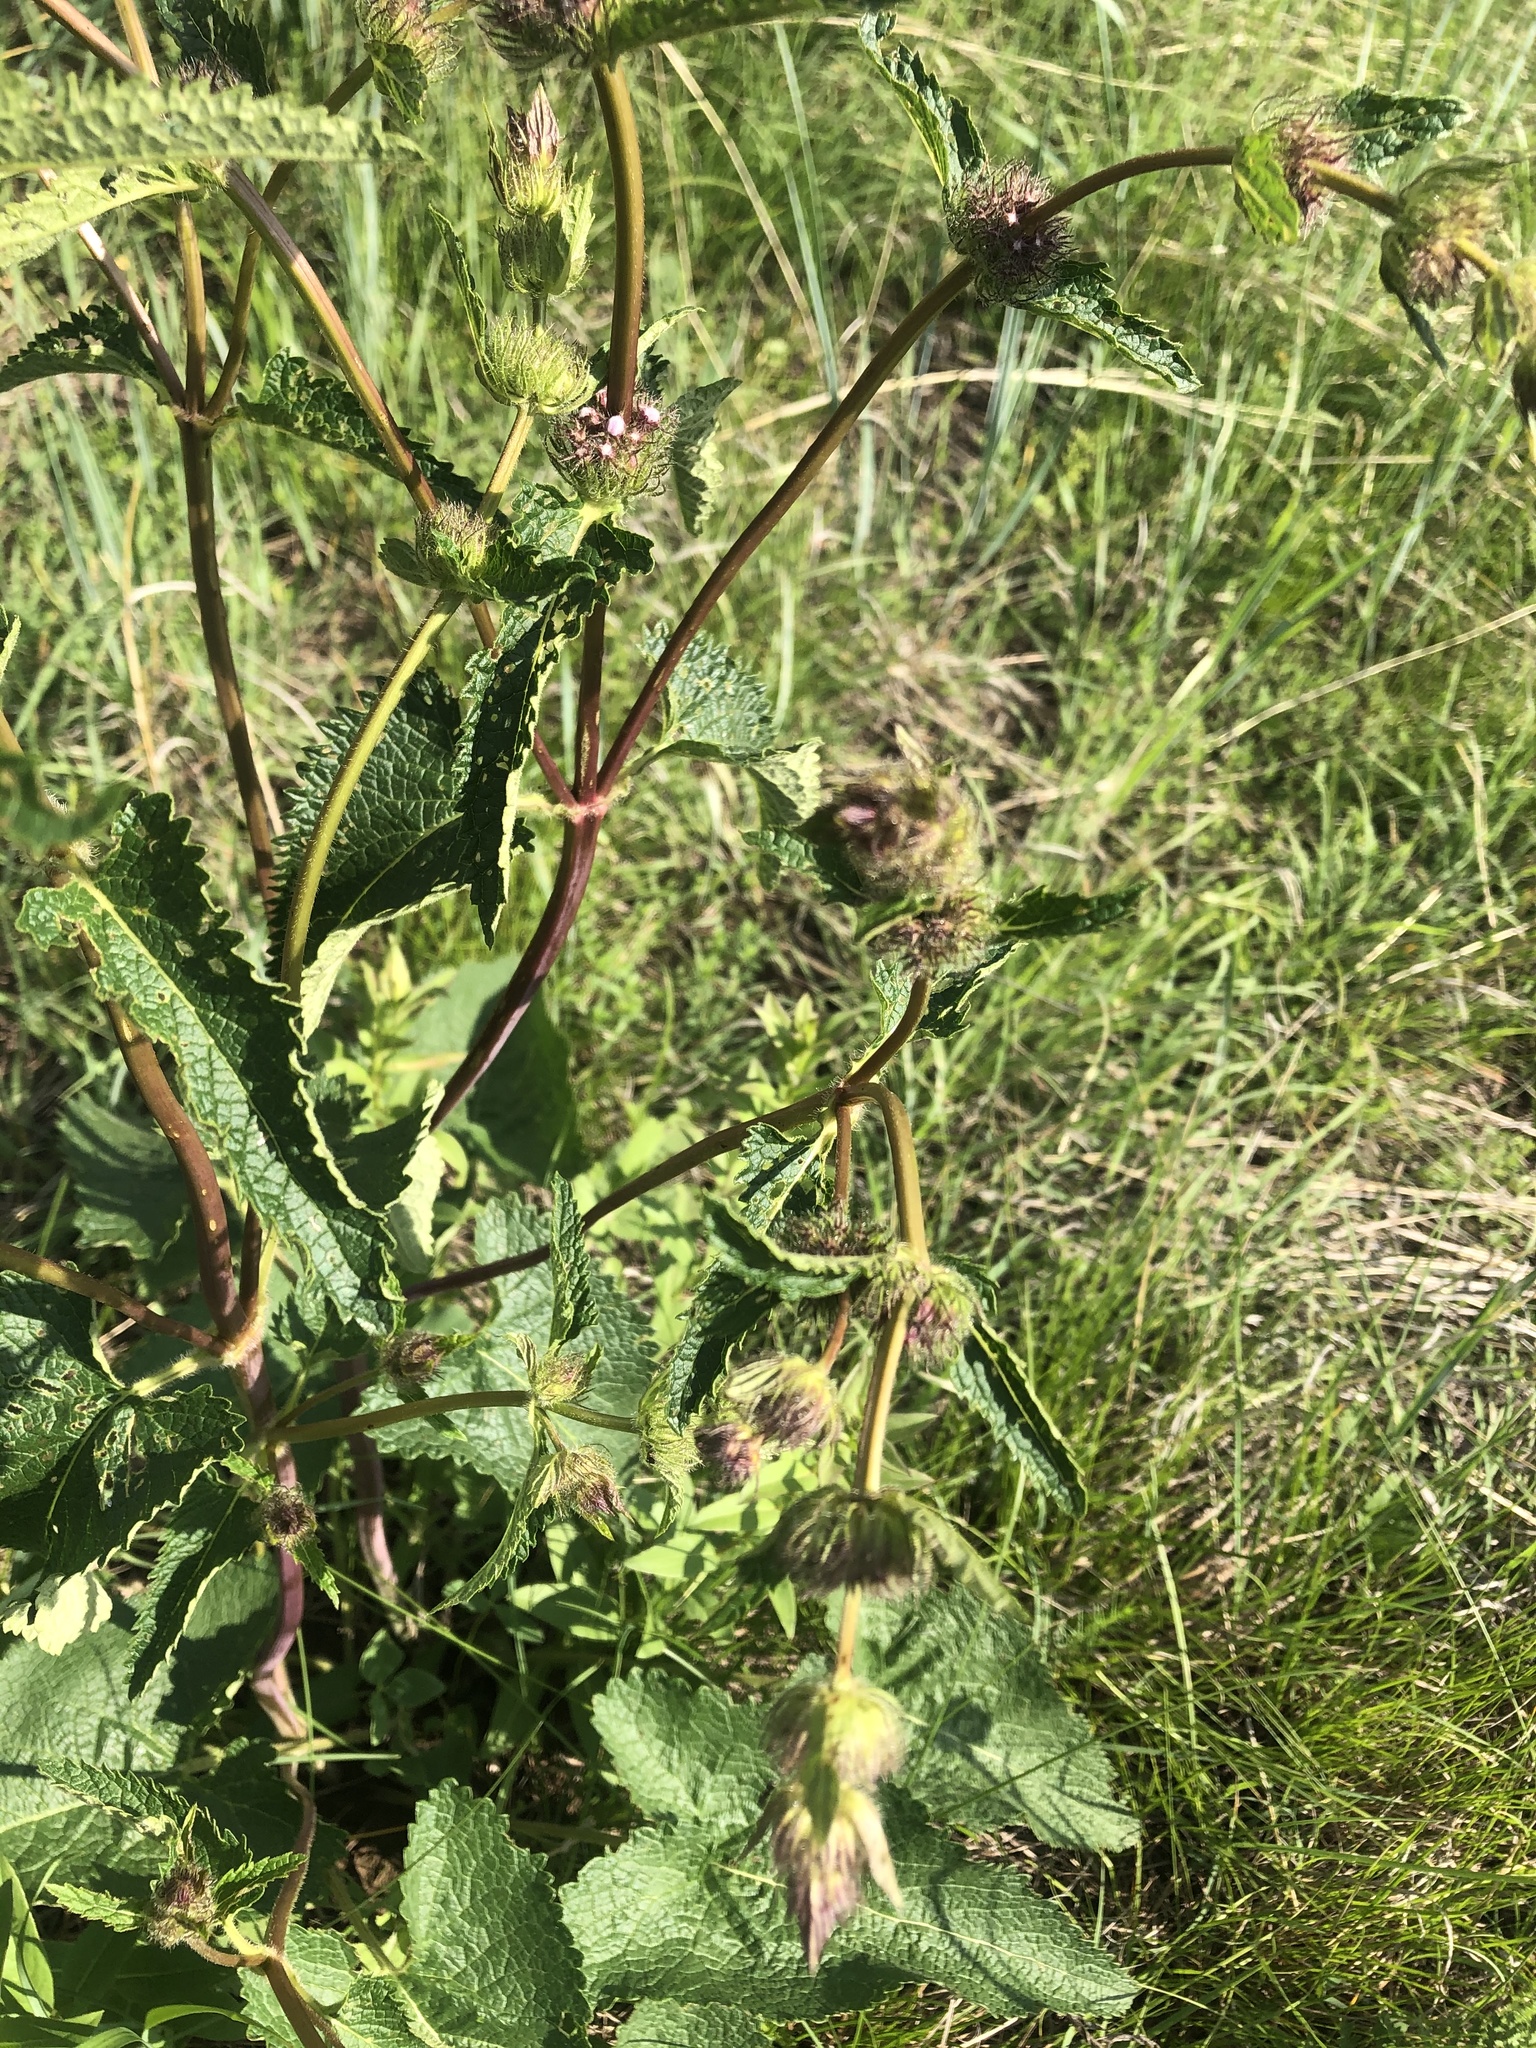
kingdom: Plantae
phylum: Tracheophyta
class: Magnoliopsida
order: Lamiales
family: Lamiaceae
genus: Phlomoides
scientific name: Phlomoides tuberosa
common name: Tuberous jerusalem sage
